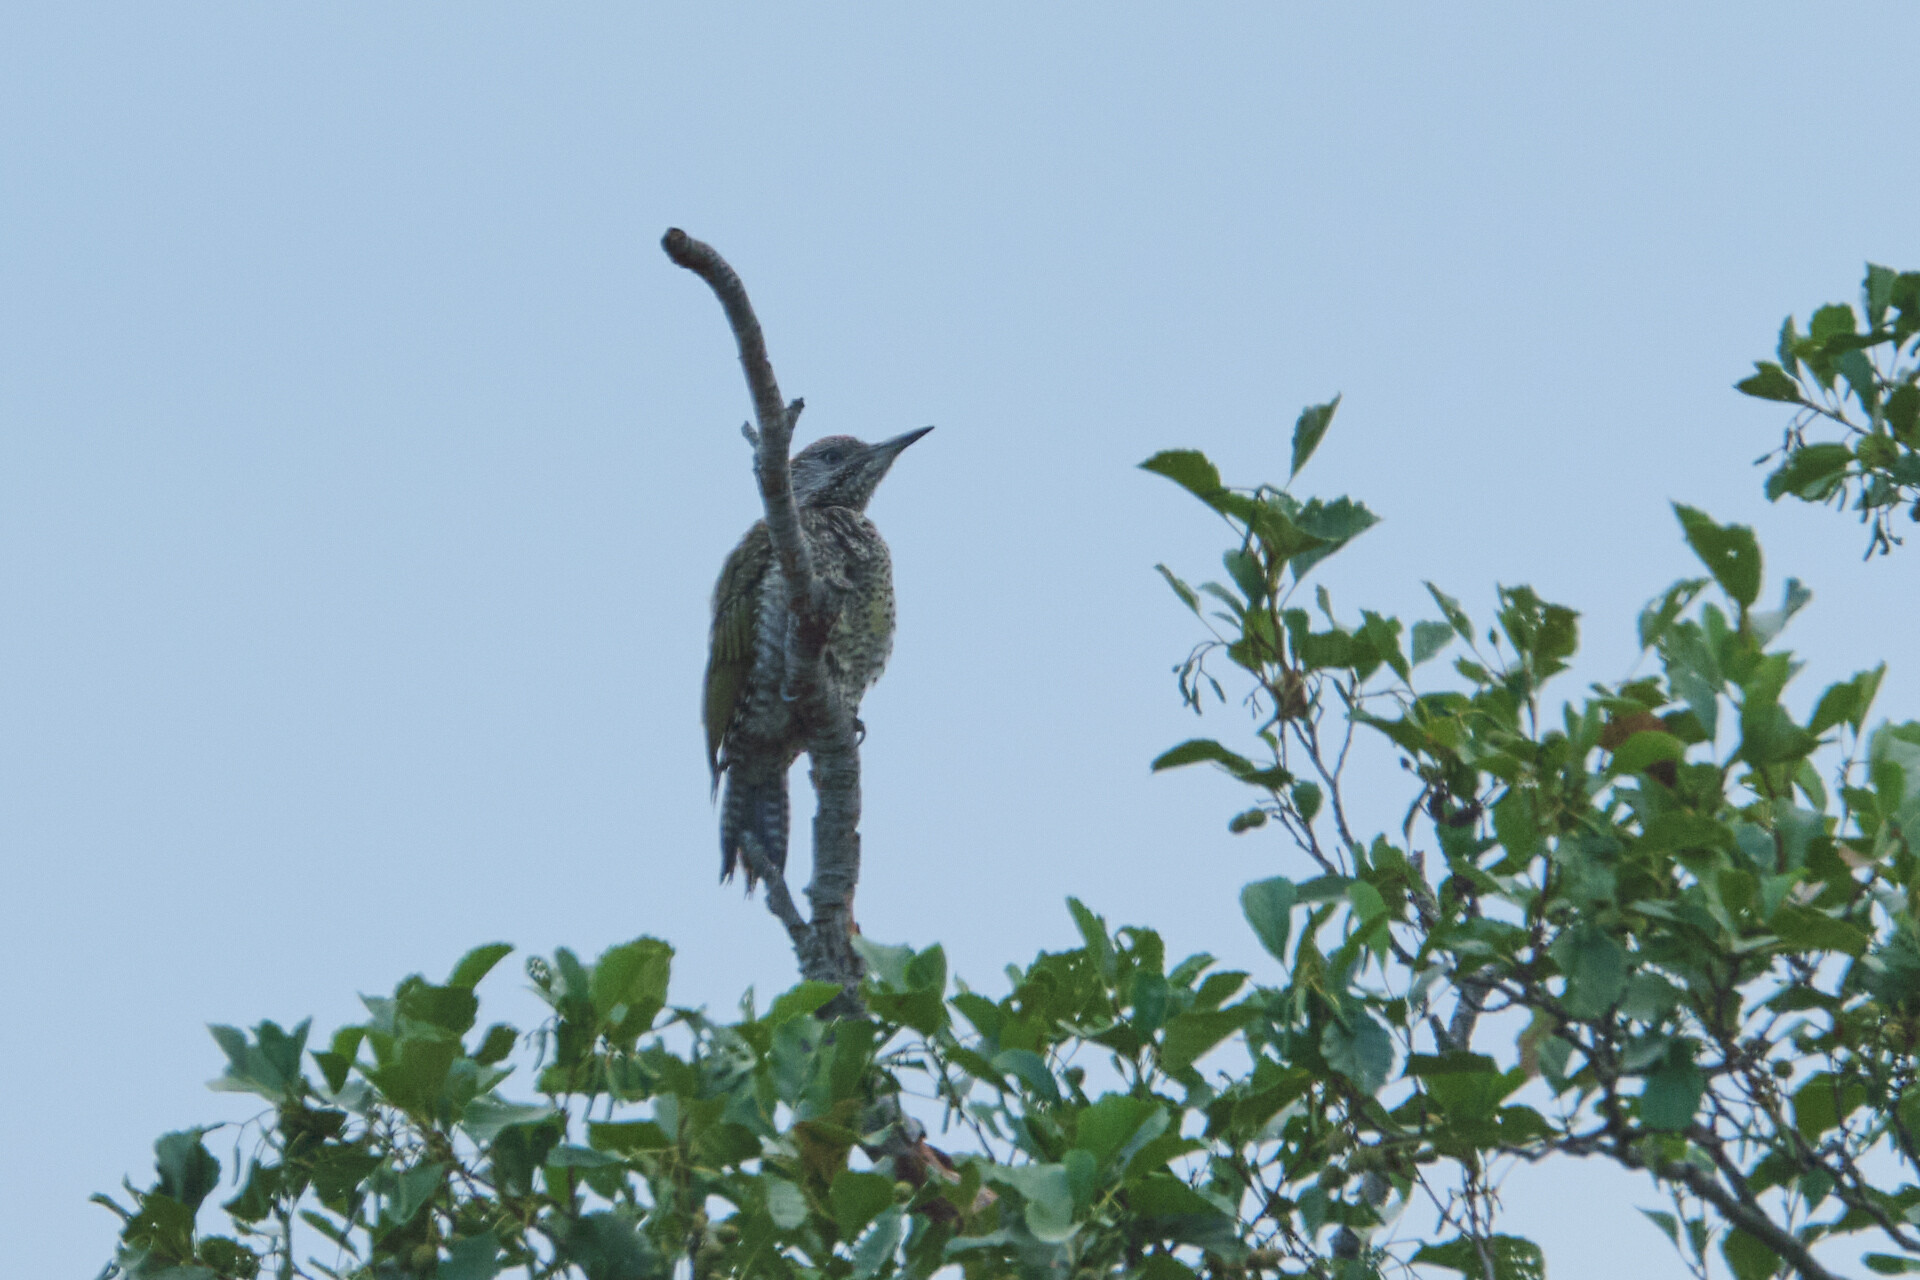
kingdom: Animalia
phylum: Chordata
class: Aves
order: Piciformes
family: Picidae
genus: Picus
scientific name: Picus viridis
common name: European green woodpecker
